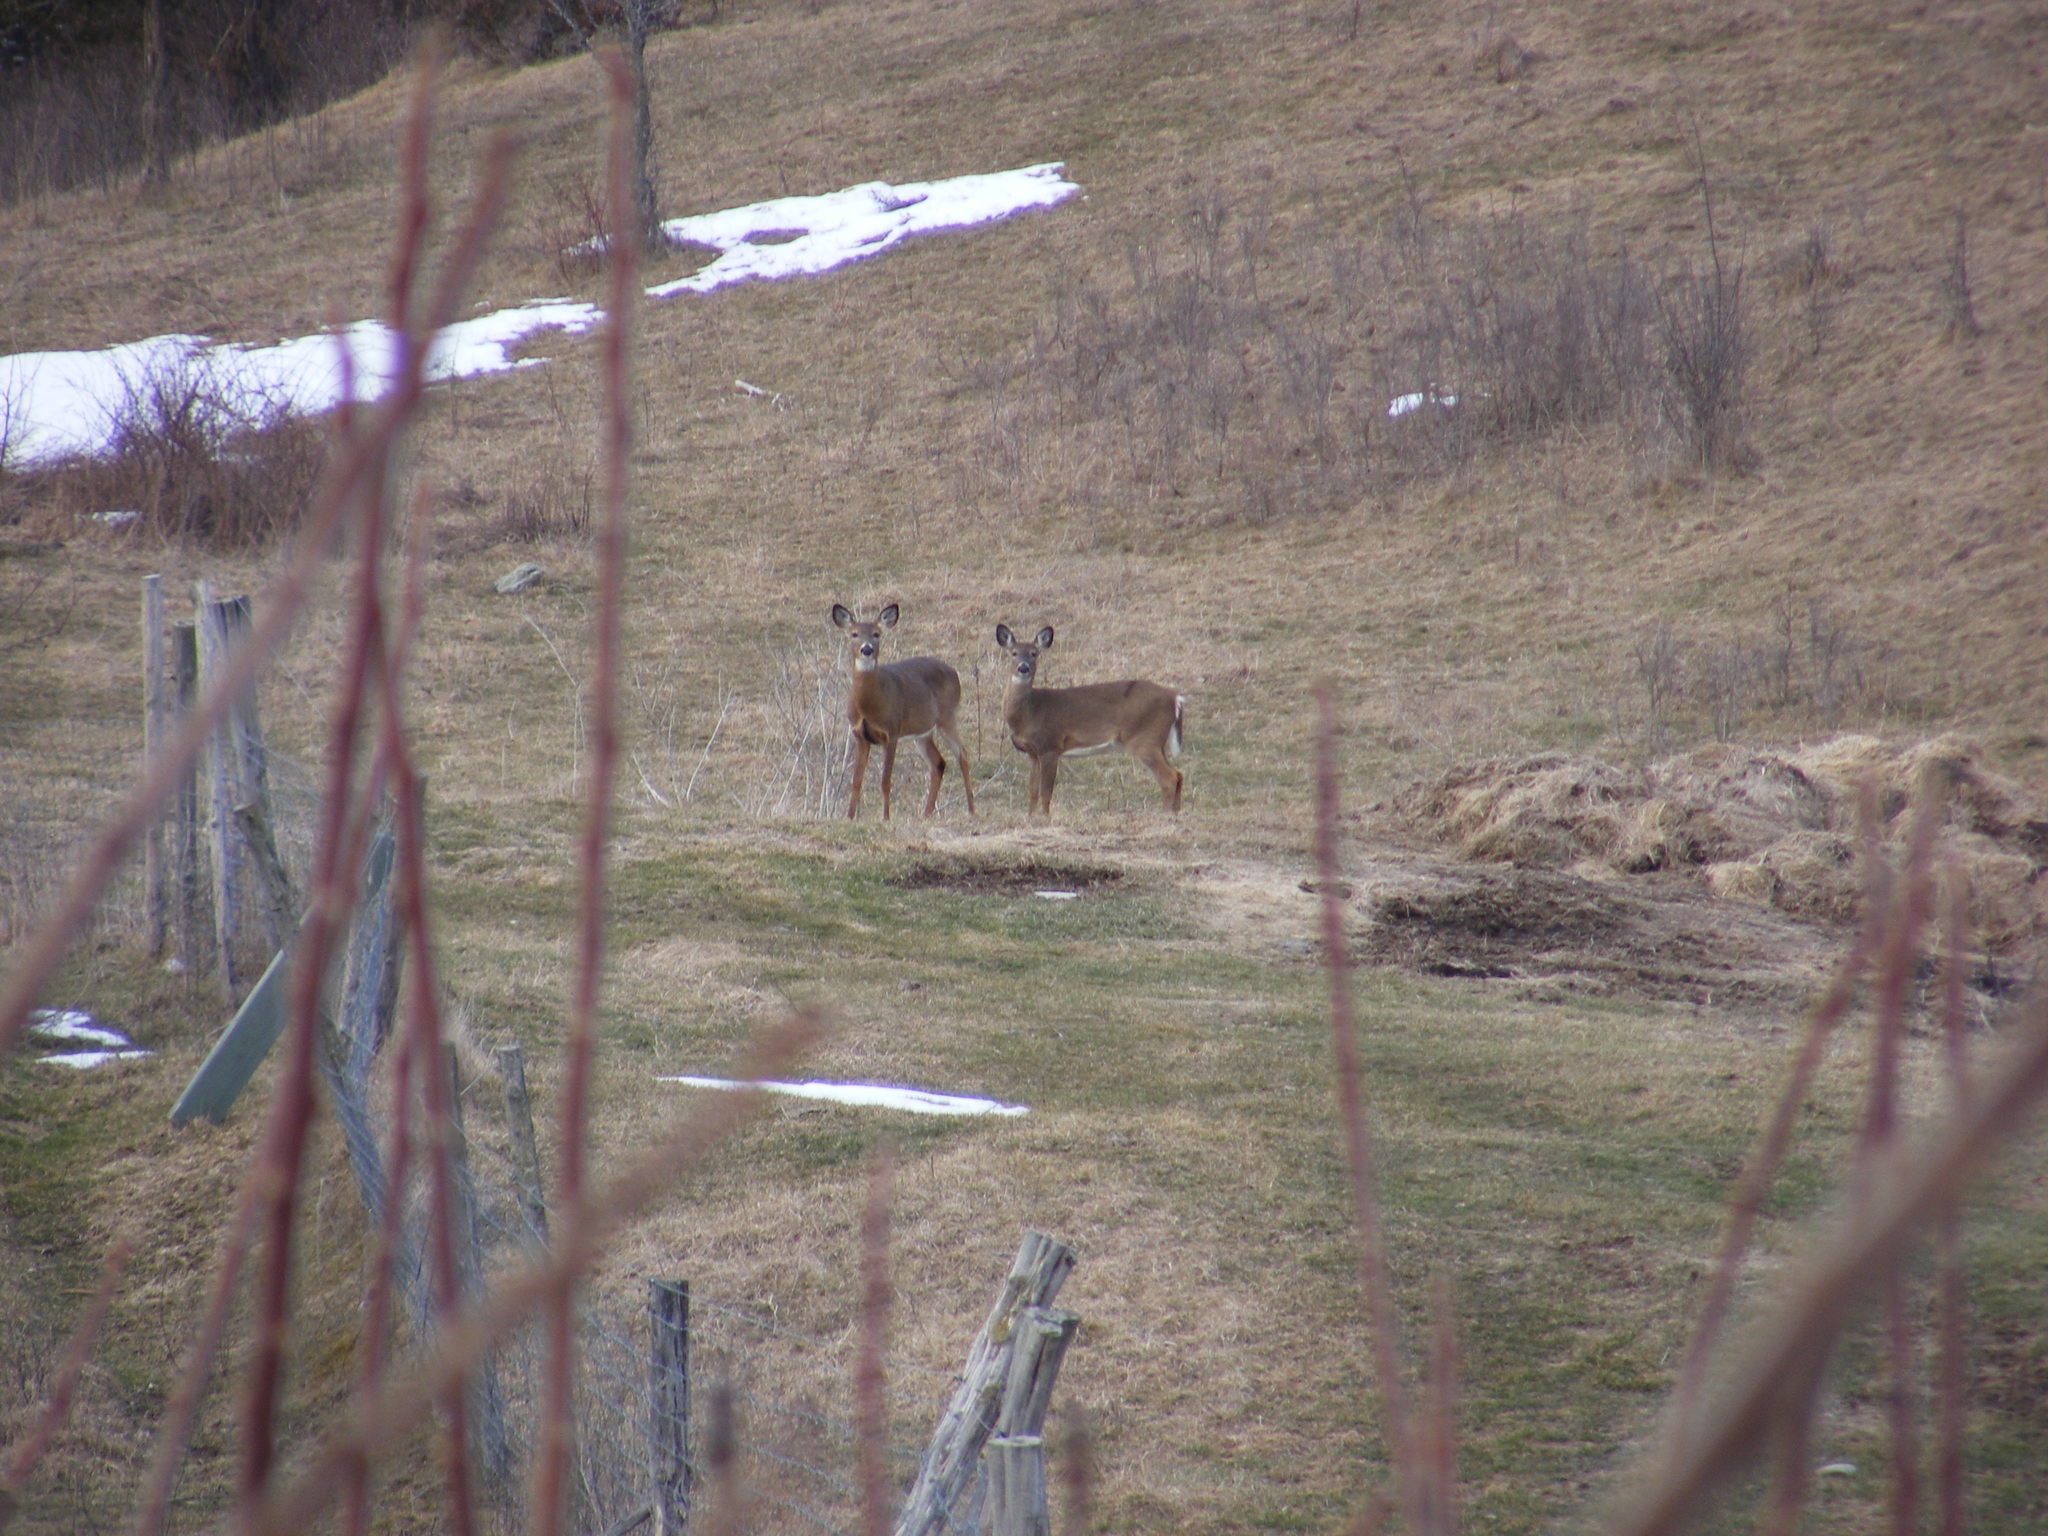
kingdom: Animalia
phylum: Chordata
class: Mammalia
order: Artiodactyla
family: Cervidae
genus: Odocoileus
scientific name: Odocoileus virginianus
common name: White-tailed deer
